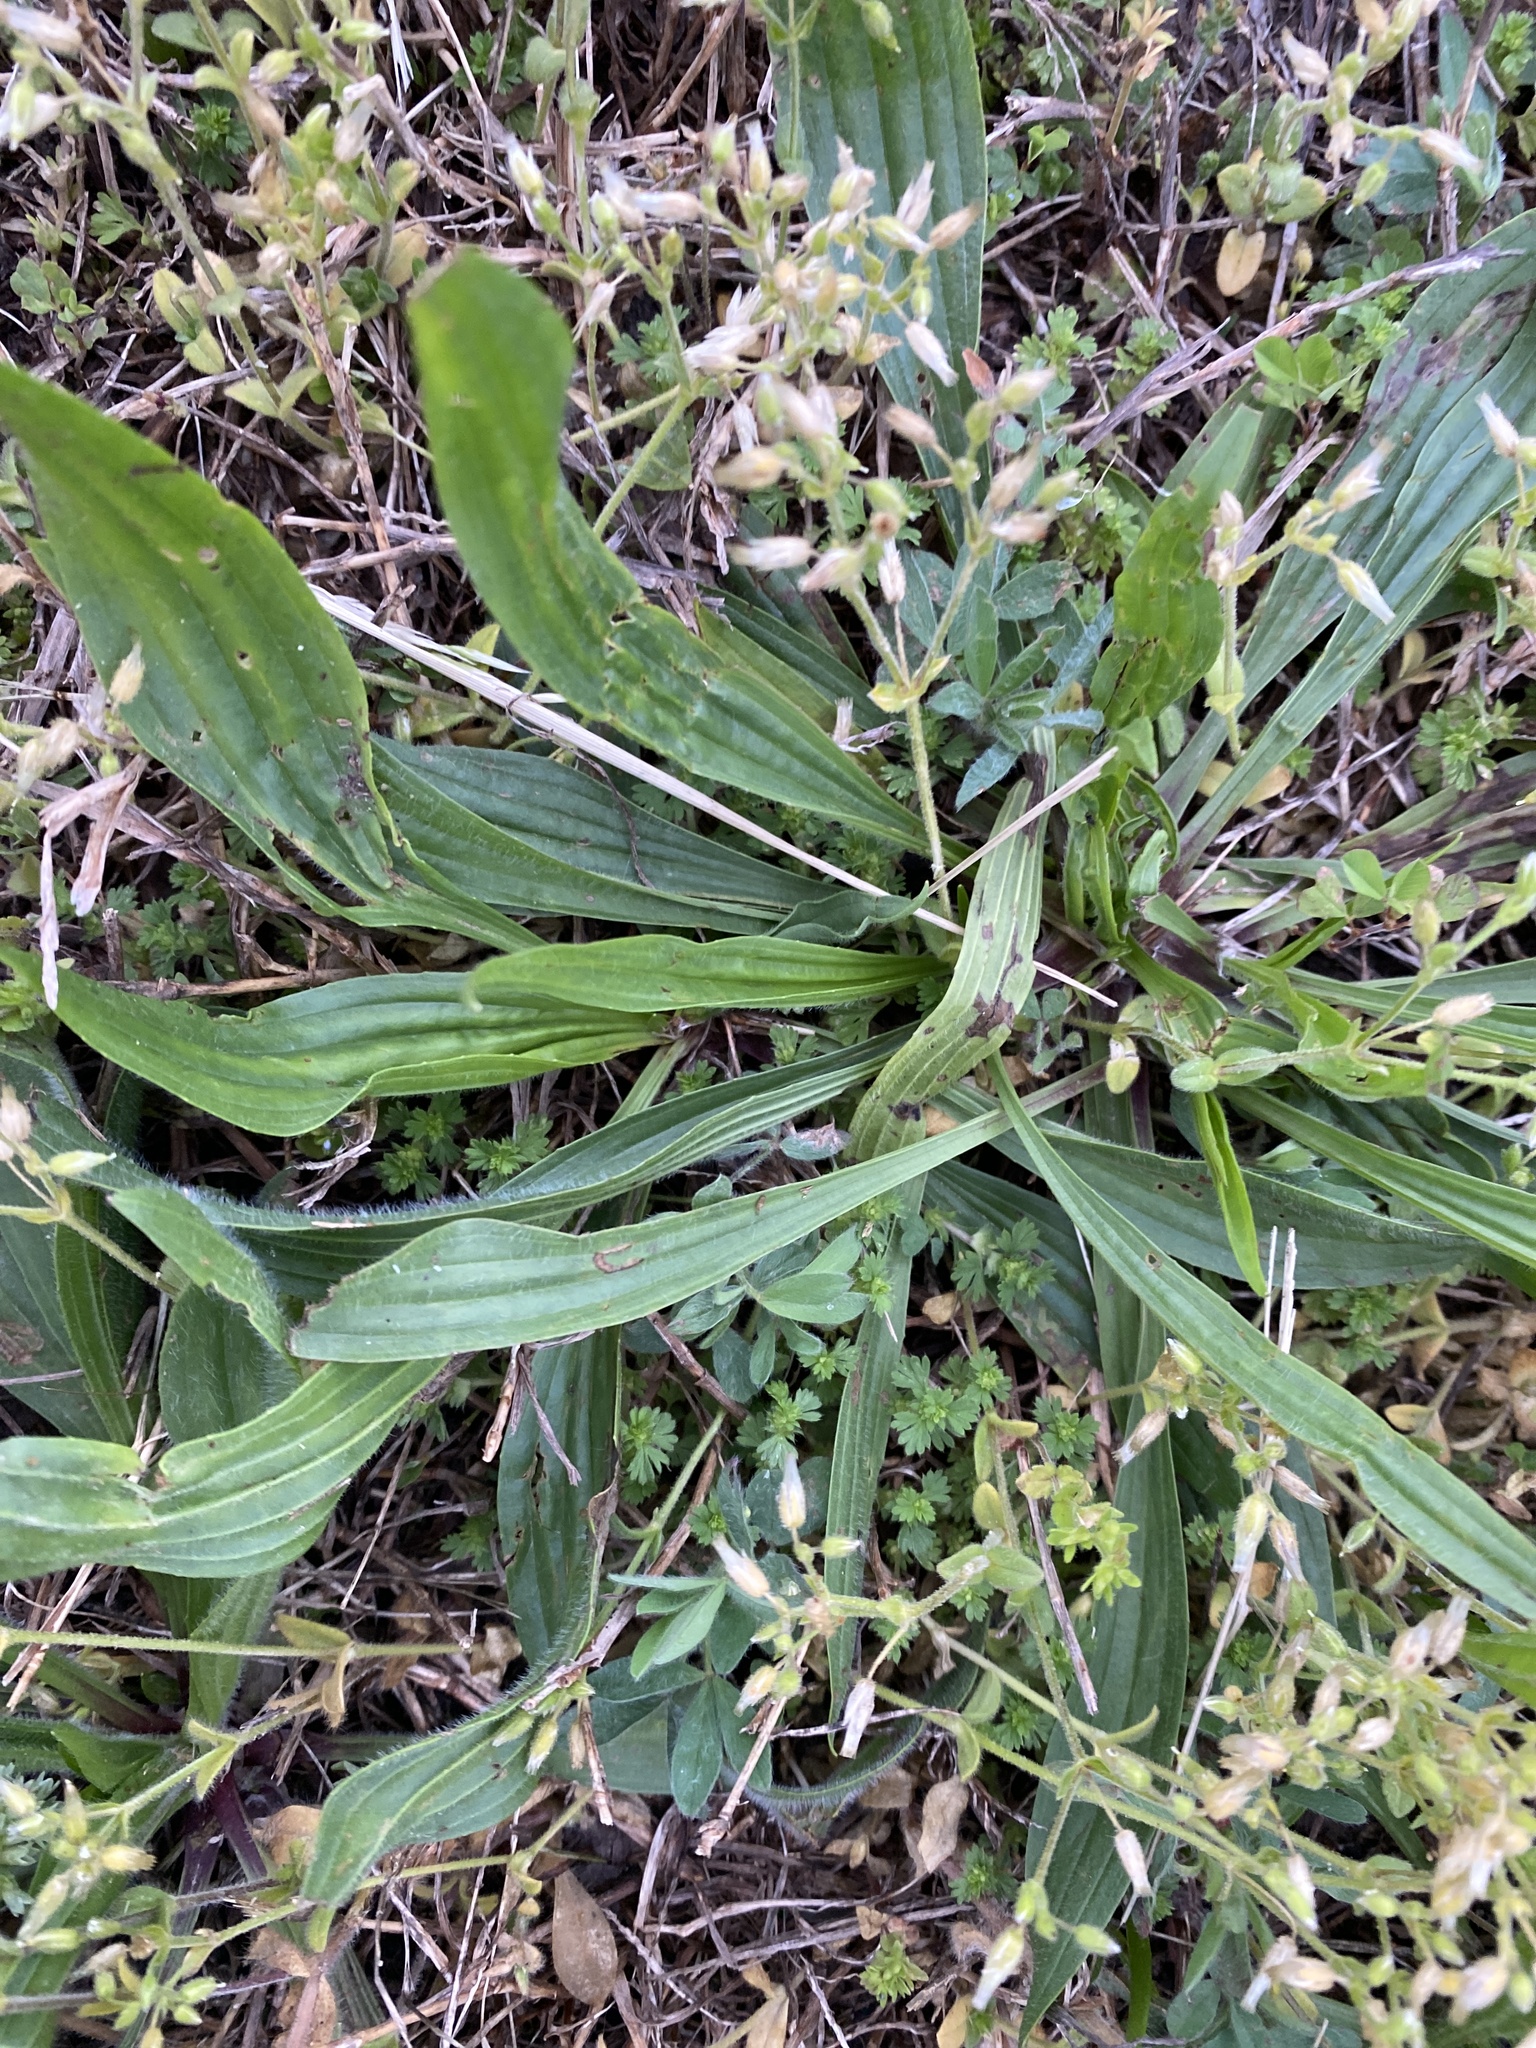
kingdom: Plantae
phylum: Tracheophyta
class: Magnoliopsida
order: Lamiales
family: Plantaginaceae
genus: Plantago
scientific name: Plantago lanceolata
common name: Ribwort plantain
